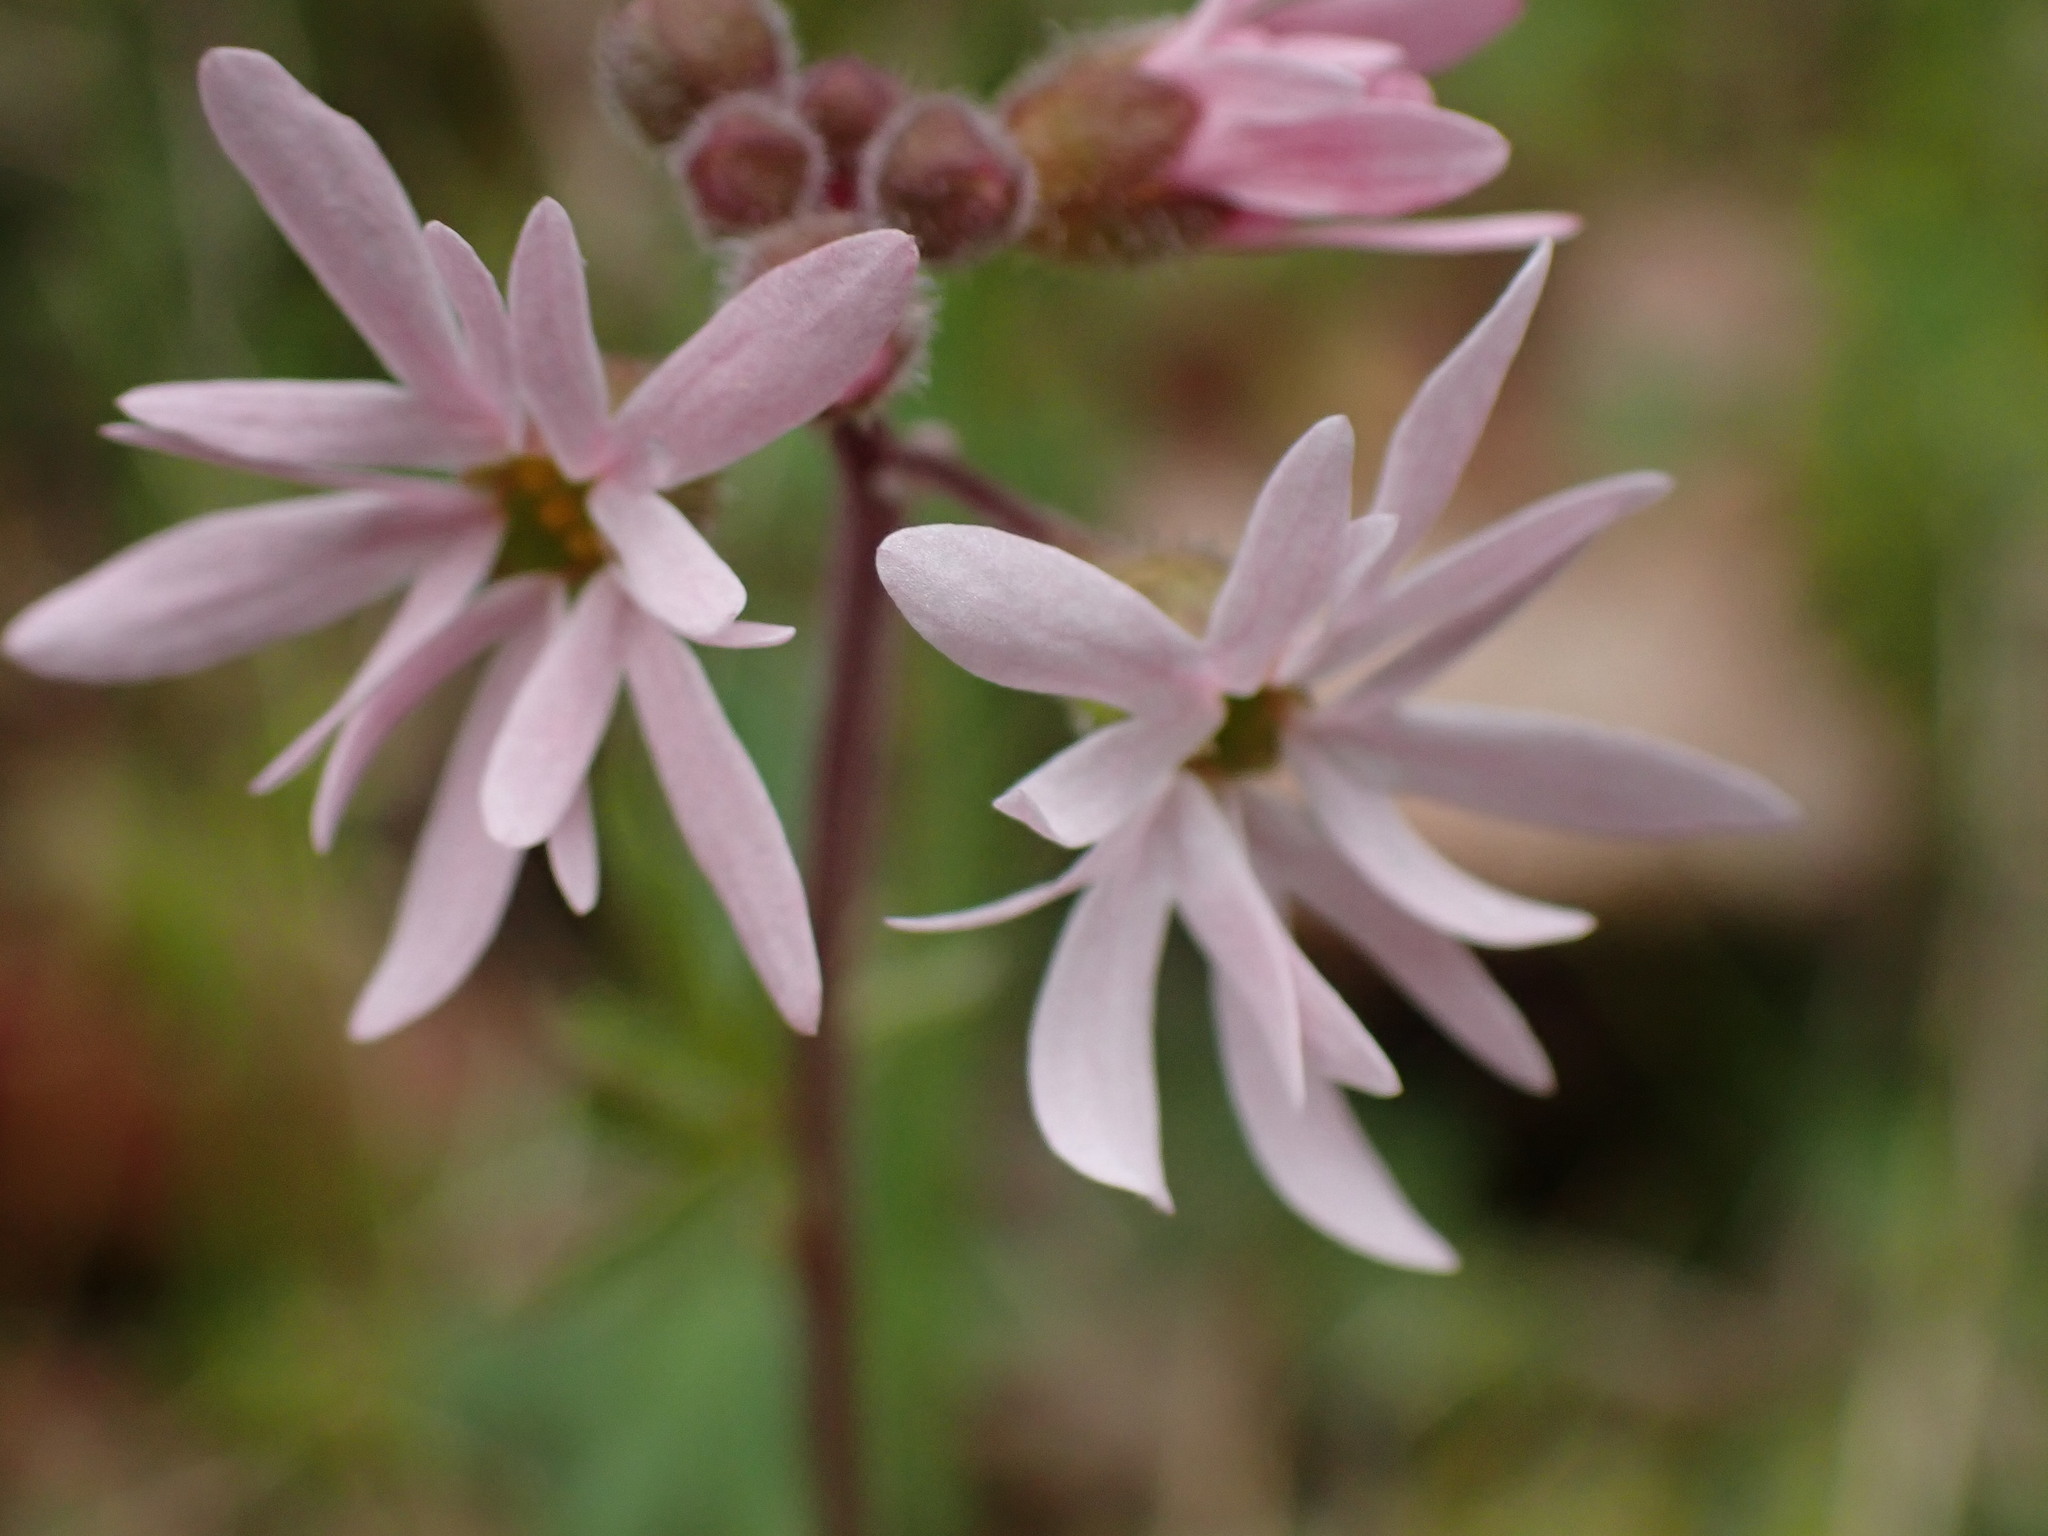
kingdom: Plantae
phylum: Tracheophyta
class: Magnoliopsida
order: Saxifragales
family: Saxifragaceae
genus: Lithophragma
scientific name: Lithophragma parviflorum
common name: Small-flowered fringe-cup
